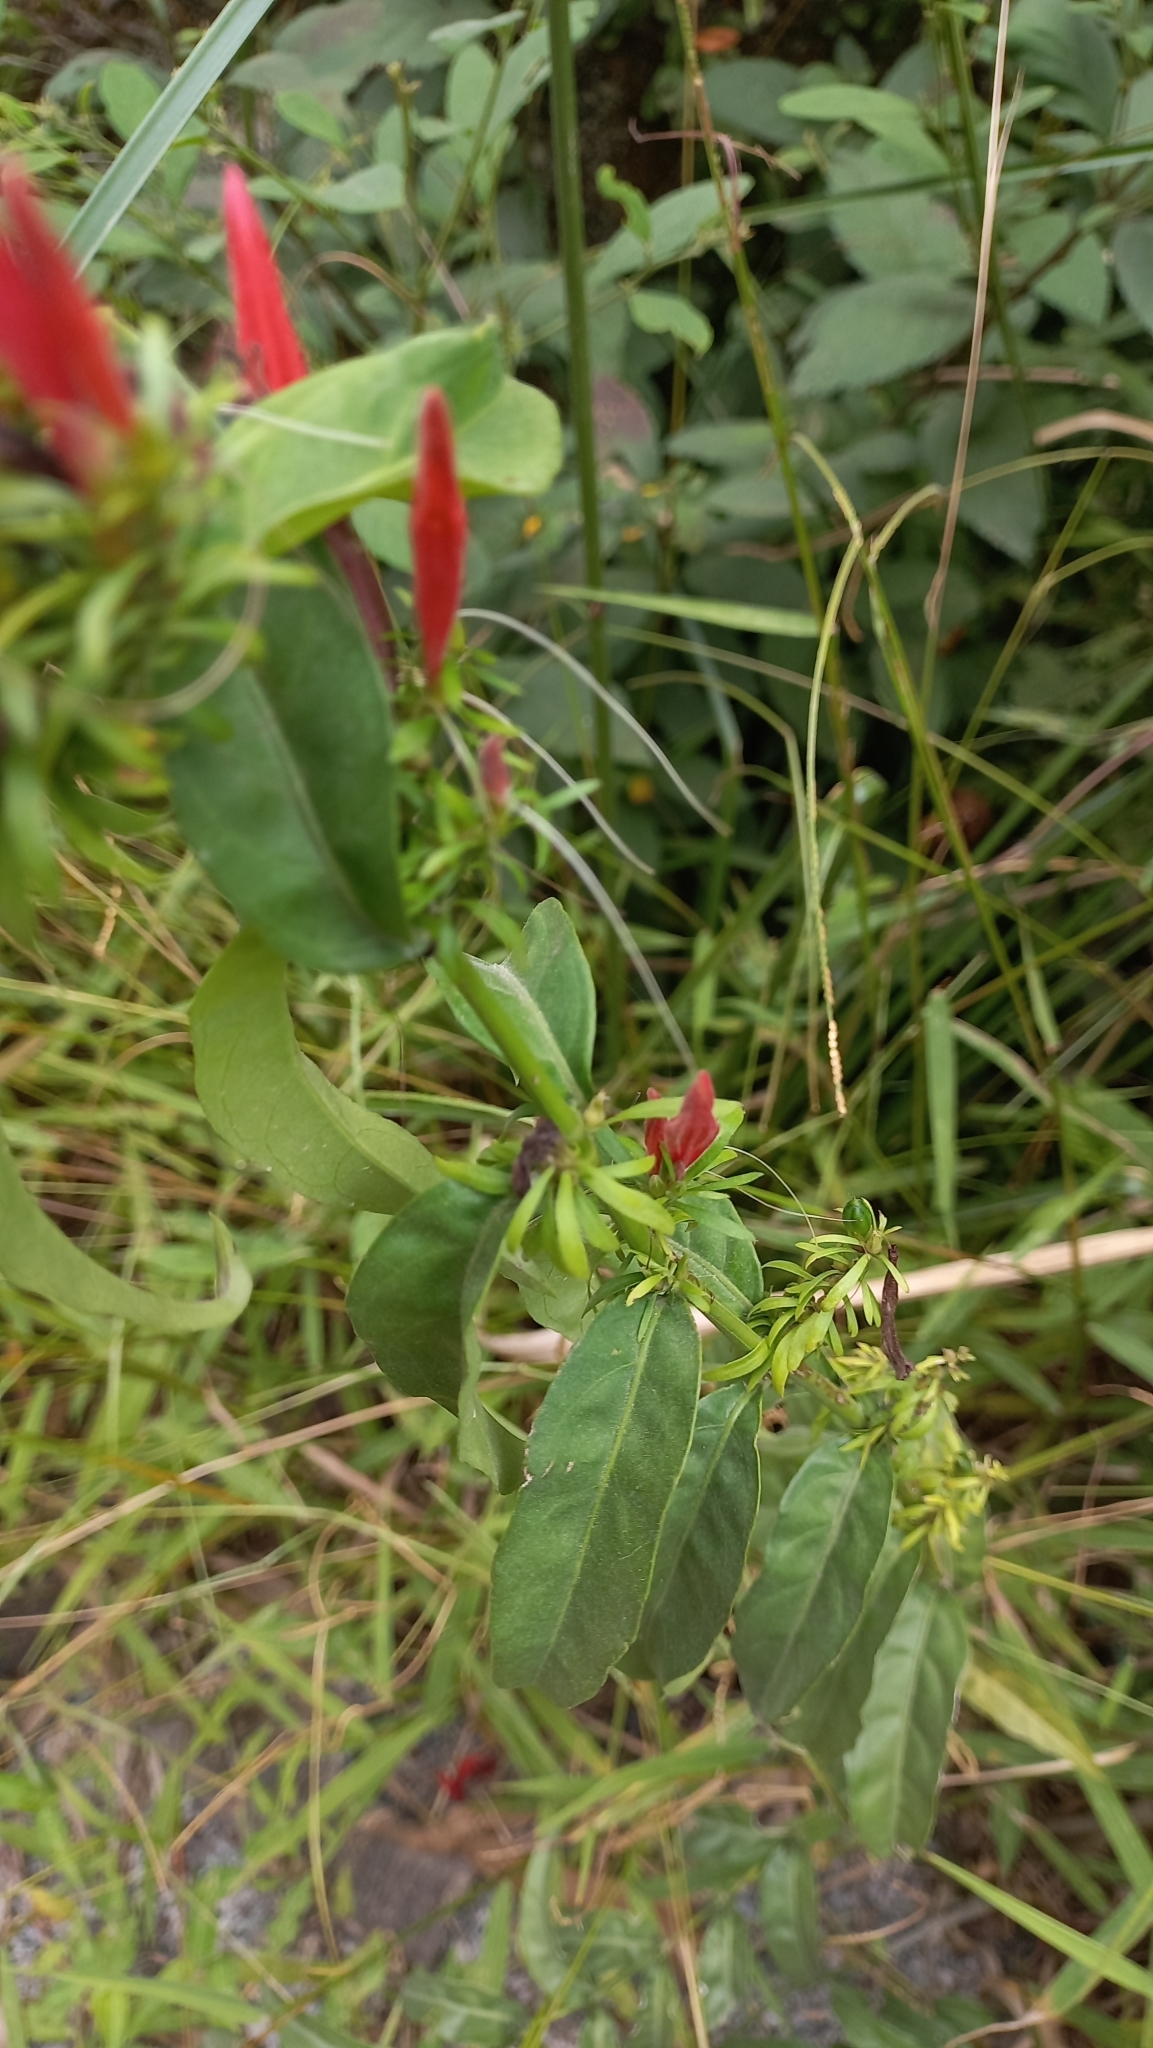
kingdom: Plantae
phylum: Tracheophyta
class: Magnoliopsida
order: Lamiales
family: Acanthaceae
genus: Justicia
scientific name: Justicia brasiliana
